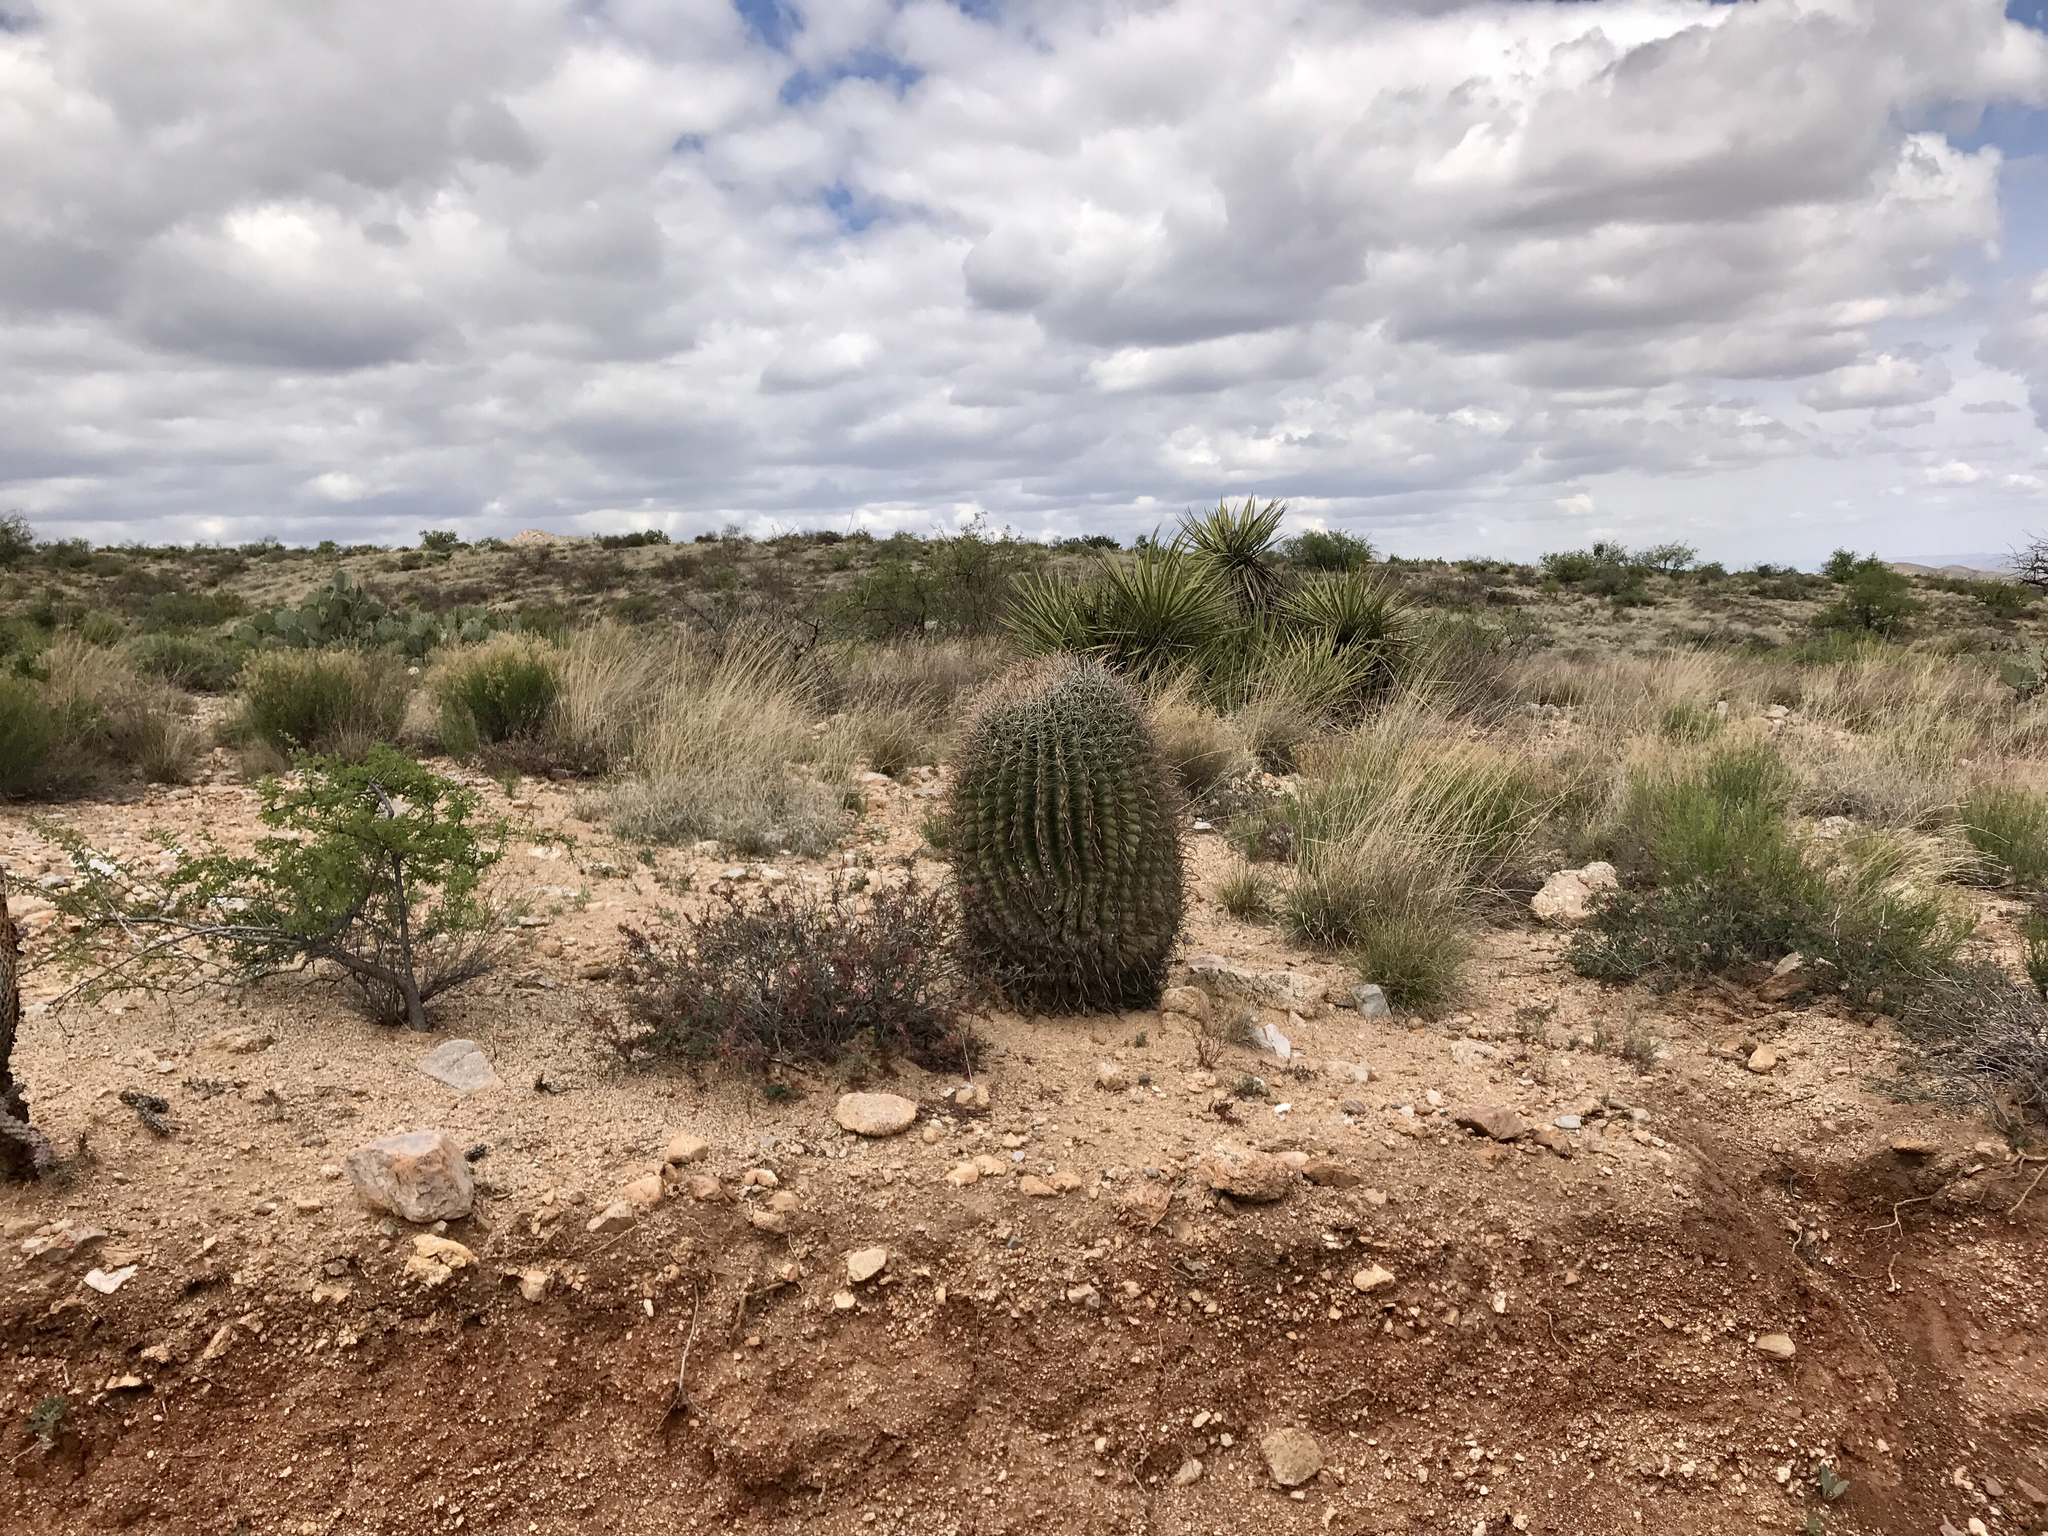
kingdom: Plantae
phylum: Tracheophyta
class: Magnoliopsida
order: Caryophyllales
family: Cactaceae
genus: Ferocactus
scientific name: Ferocactus wislizeni
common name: Candy barrel cactus
